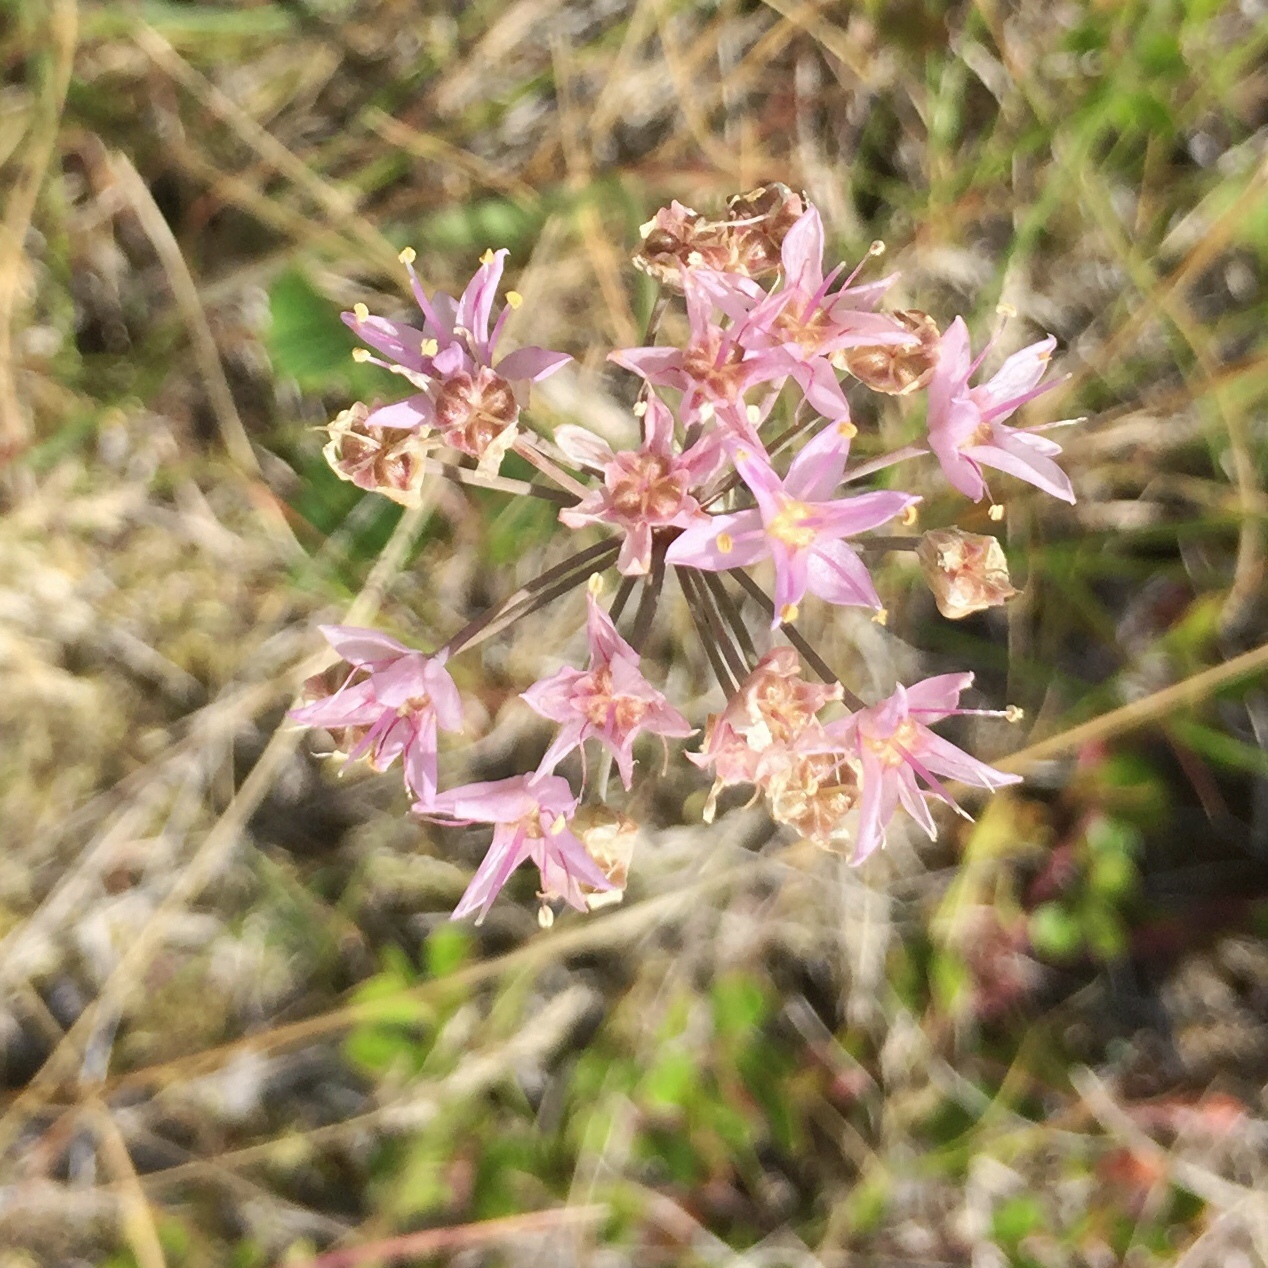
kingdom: Plantae
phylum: Tracheophyta
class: Liliopsida
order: Asparagales
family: Amaryllidaceae
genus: Allium
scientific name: Allium stellatum
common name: Autumn onion
